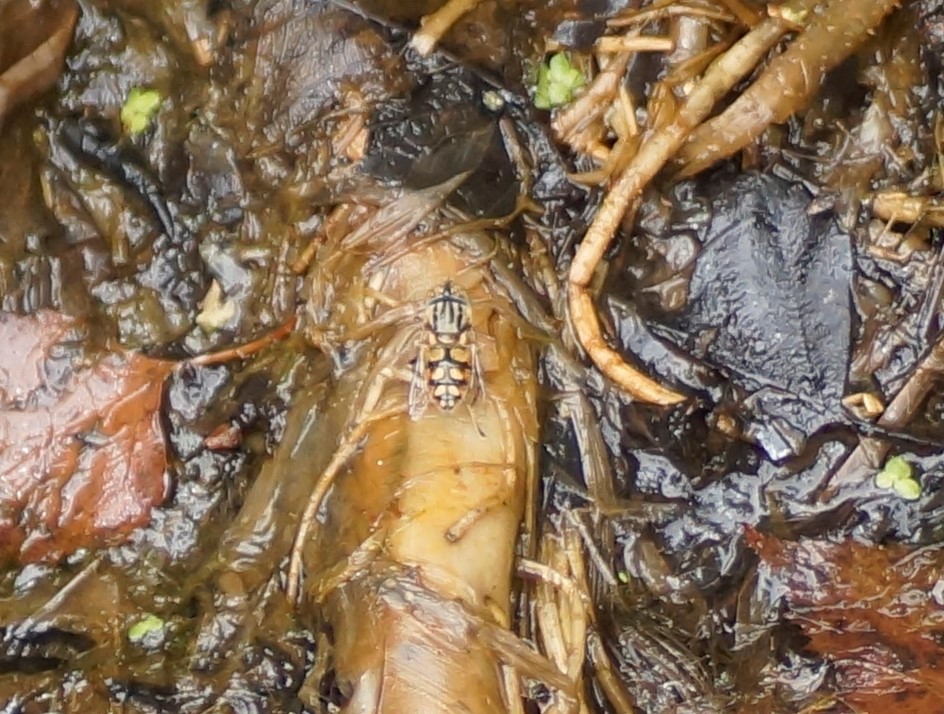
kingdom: Animalia
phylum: Arthropoda
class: Insecta
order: Diptera
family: Syrphidae
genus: Eristalinus
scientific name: Eristalinus punctulatus
